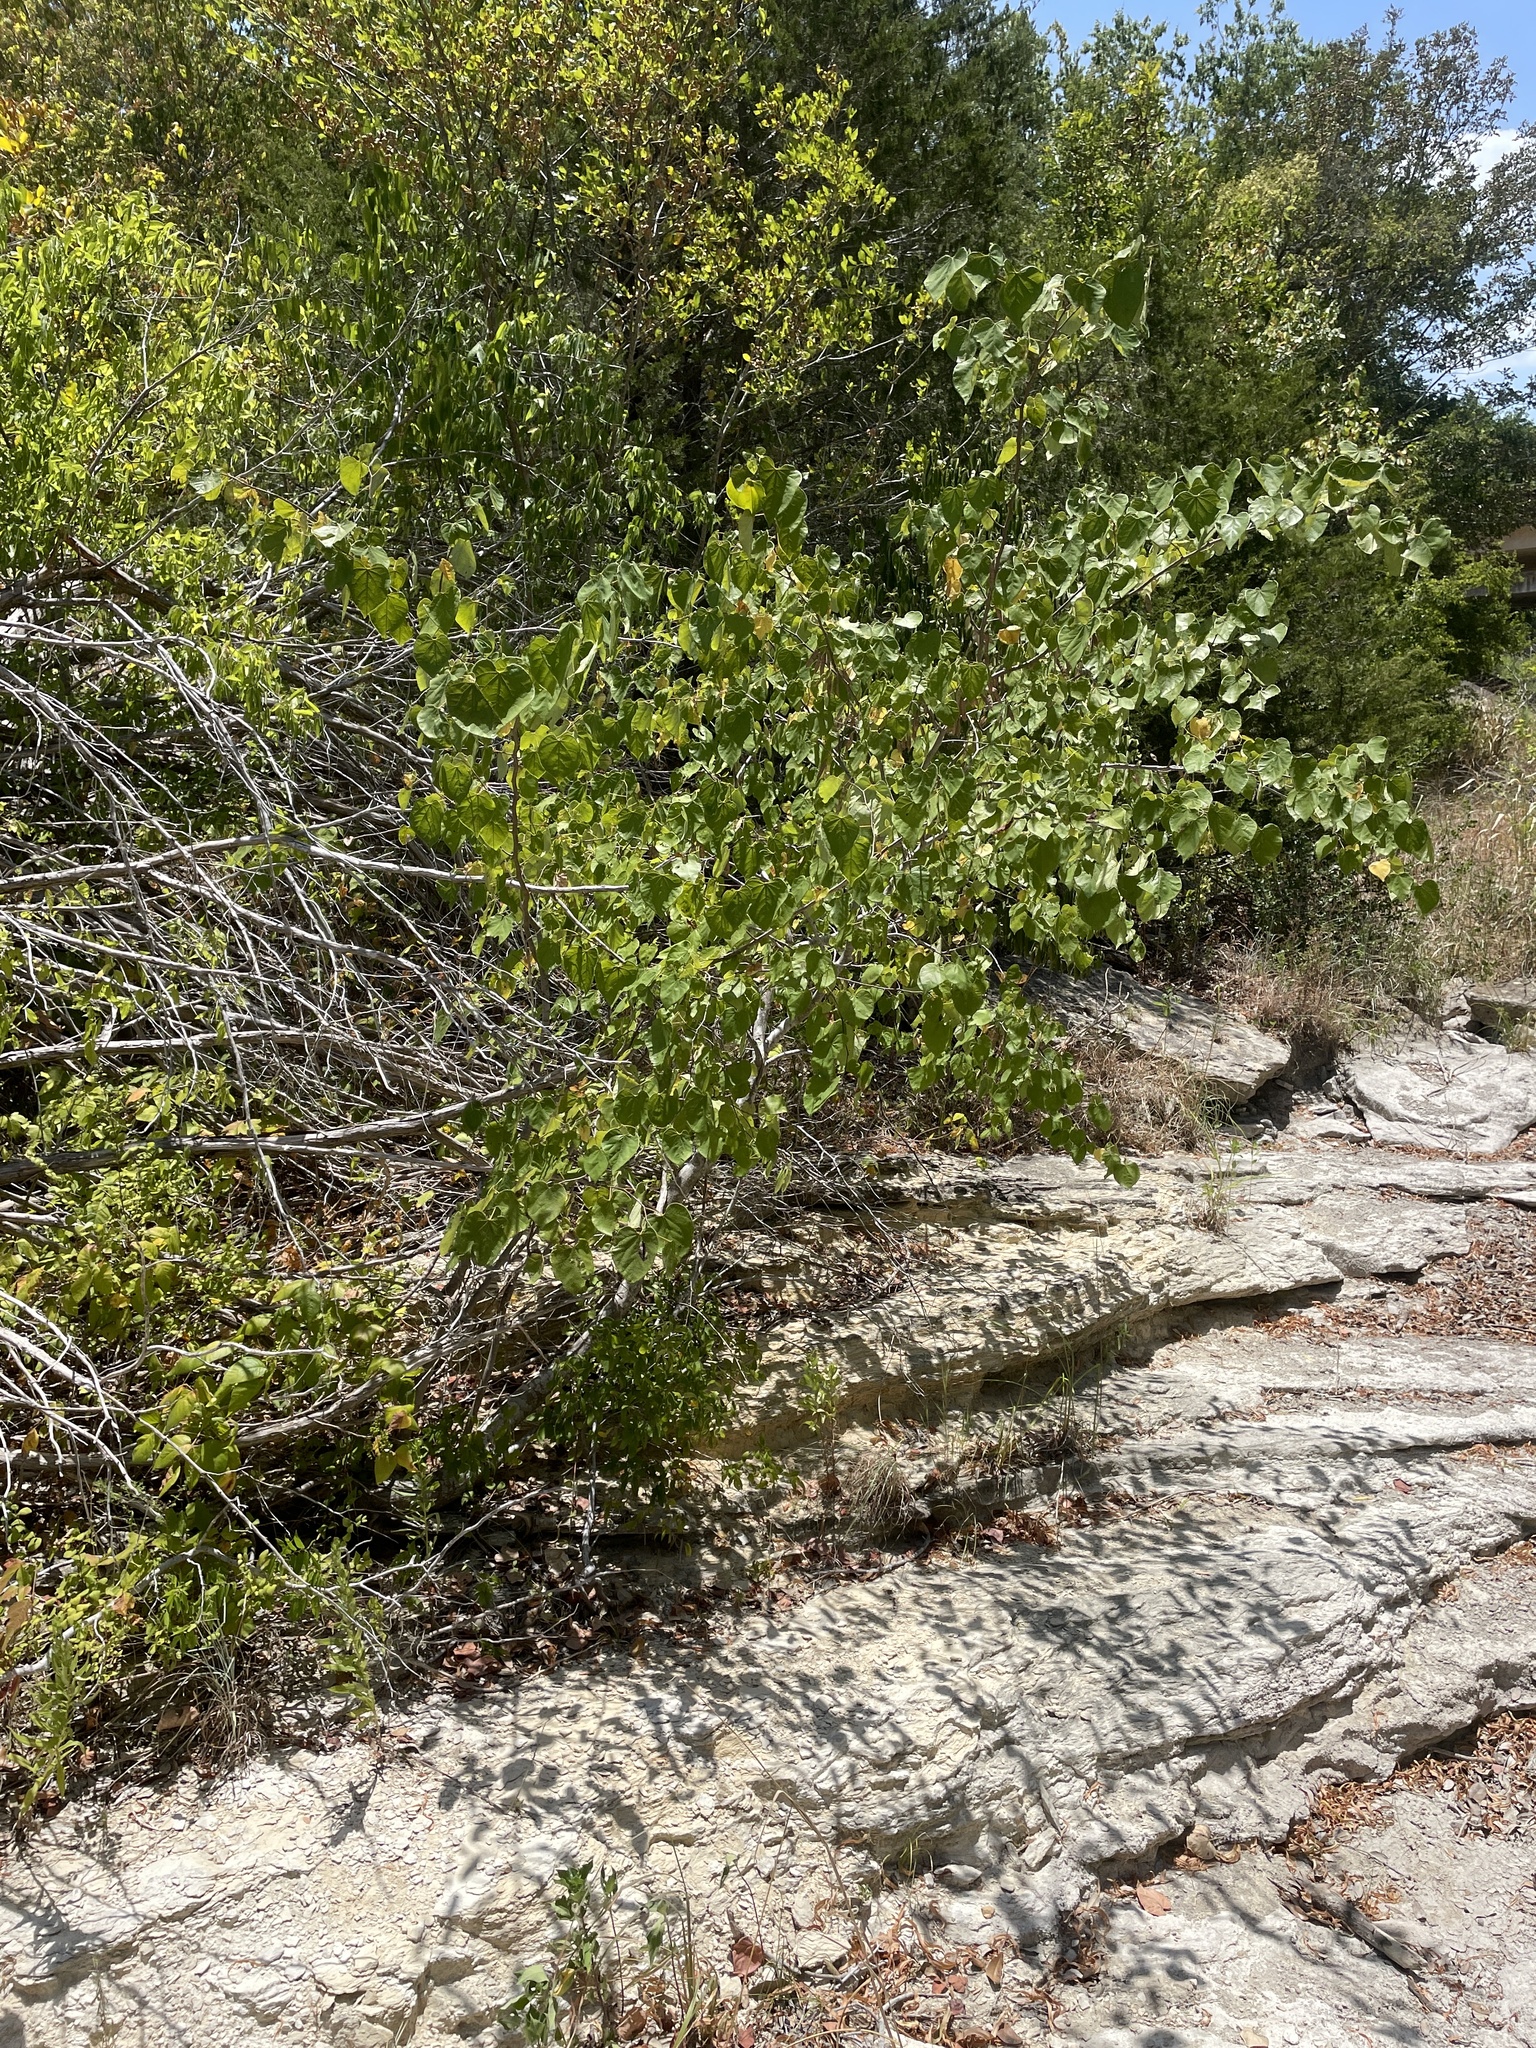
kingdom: Plantae
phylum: Tracheophyta
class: Magnoliopsida
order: Fabales
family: Fabaceae
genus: Cercis
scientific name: Cercis canadensis
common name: Eastern redbud
